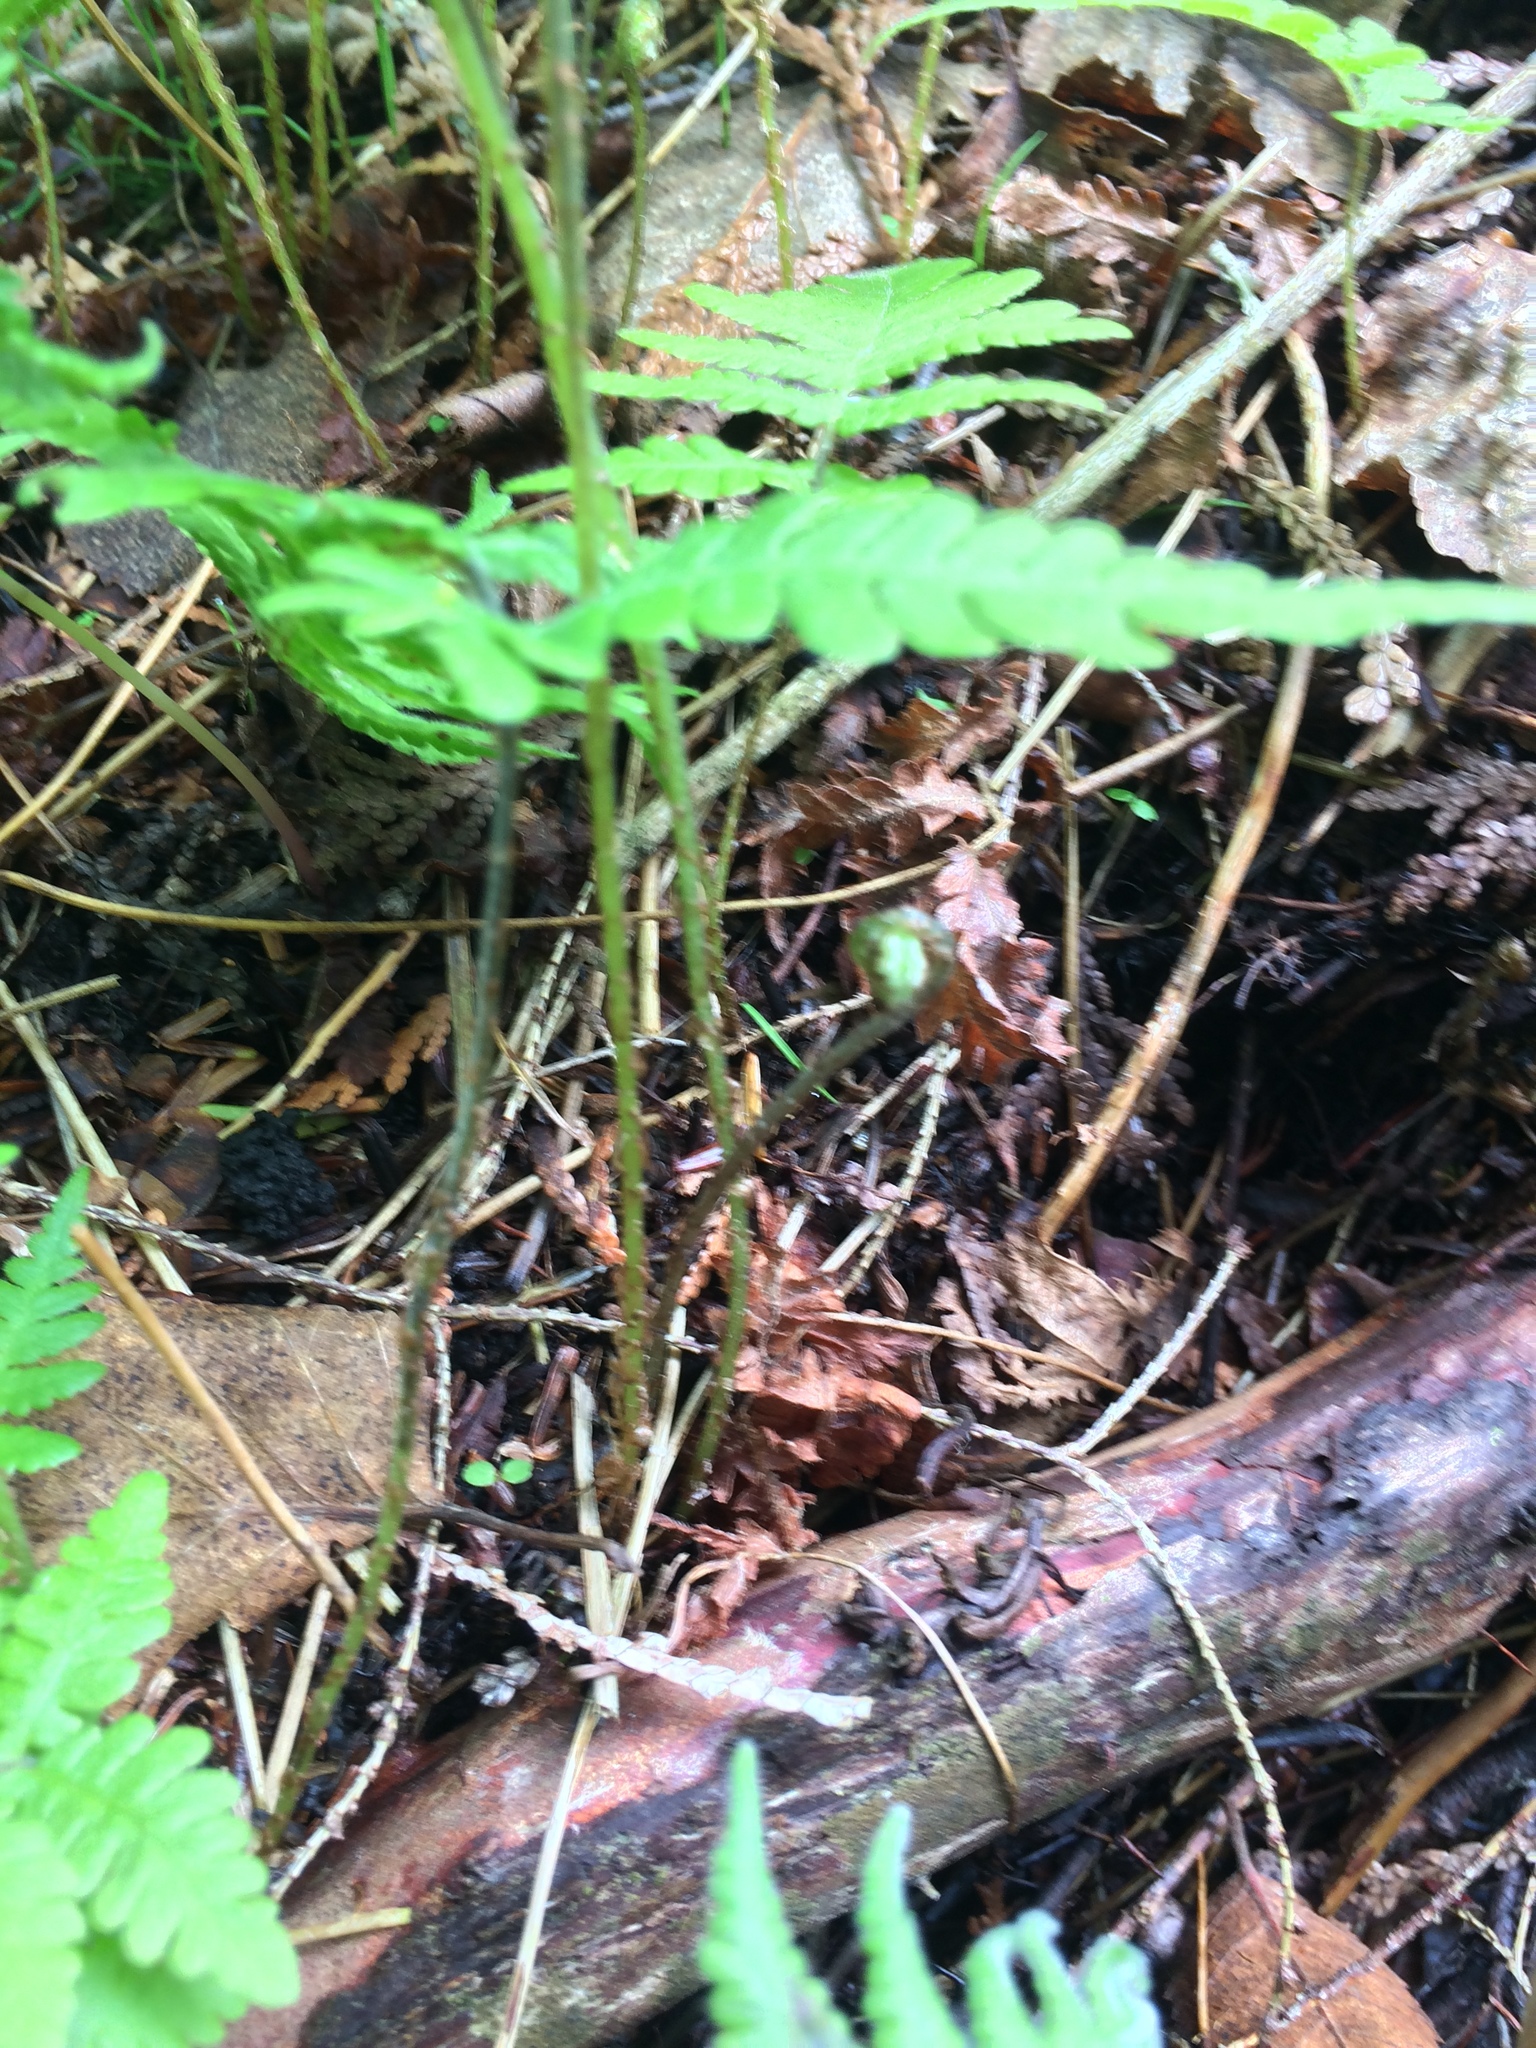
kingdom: Plantae
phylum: Tracheophyta
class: Polypodiopsida
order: Polypodiales
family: Thelypteridaceae
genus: Phegopteris
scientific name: Phegopteris connectilis
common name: Beech fern
